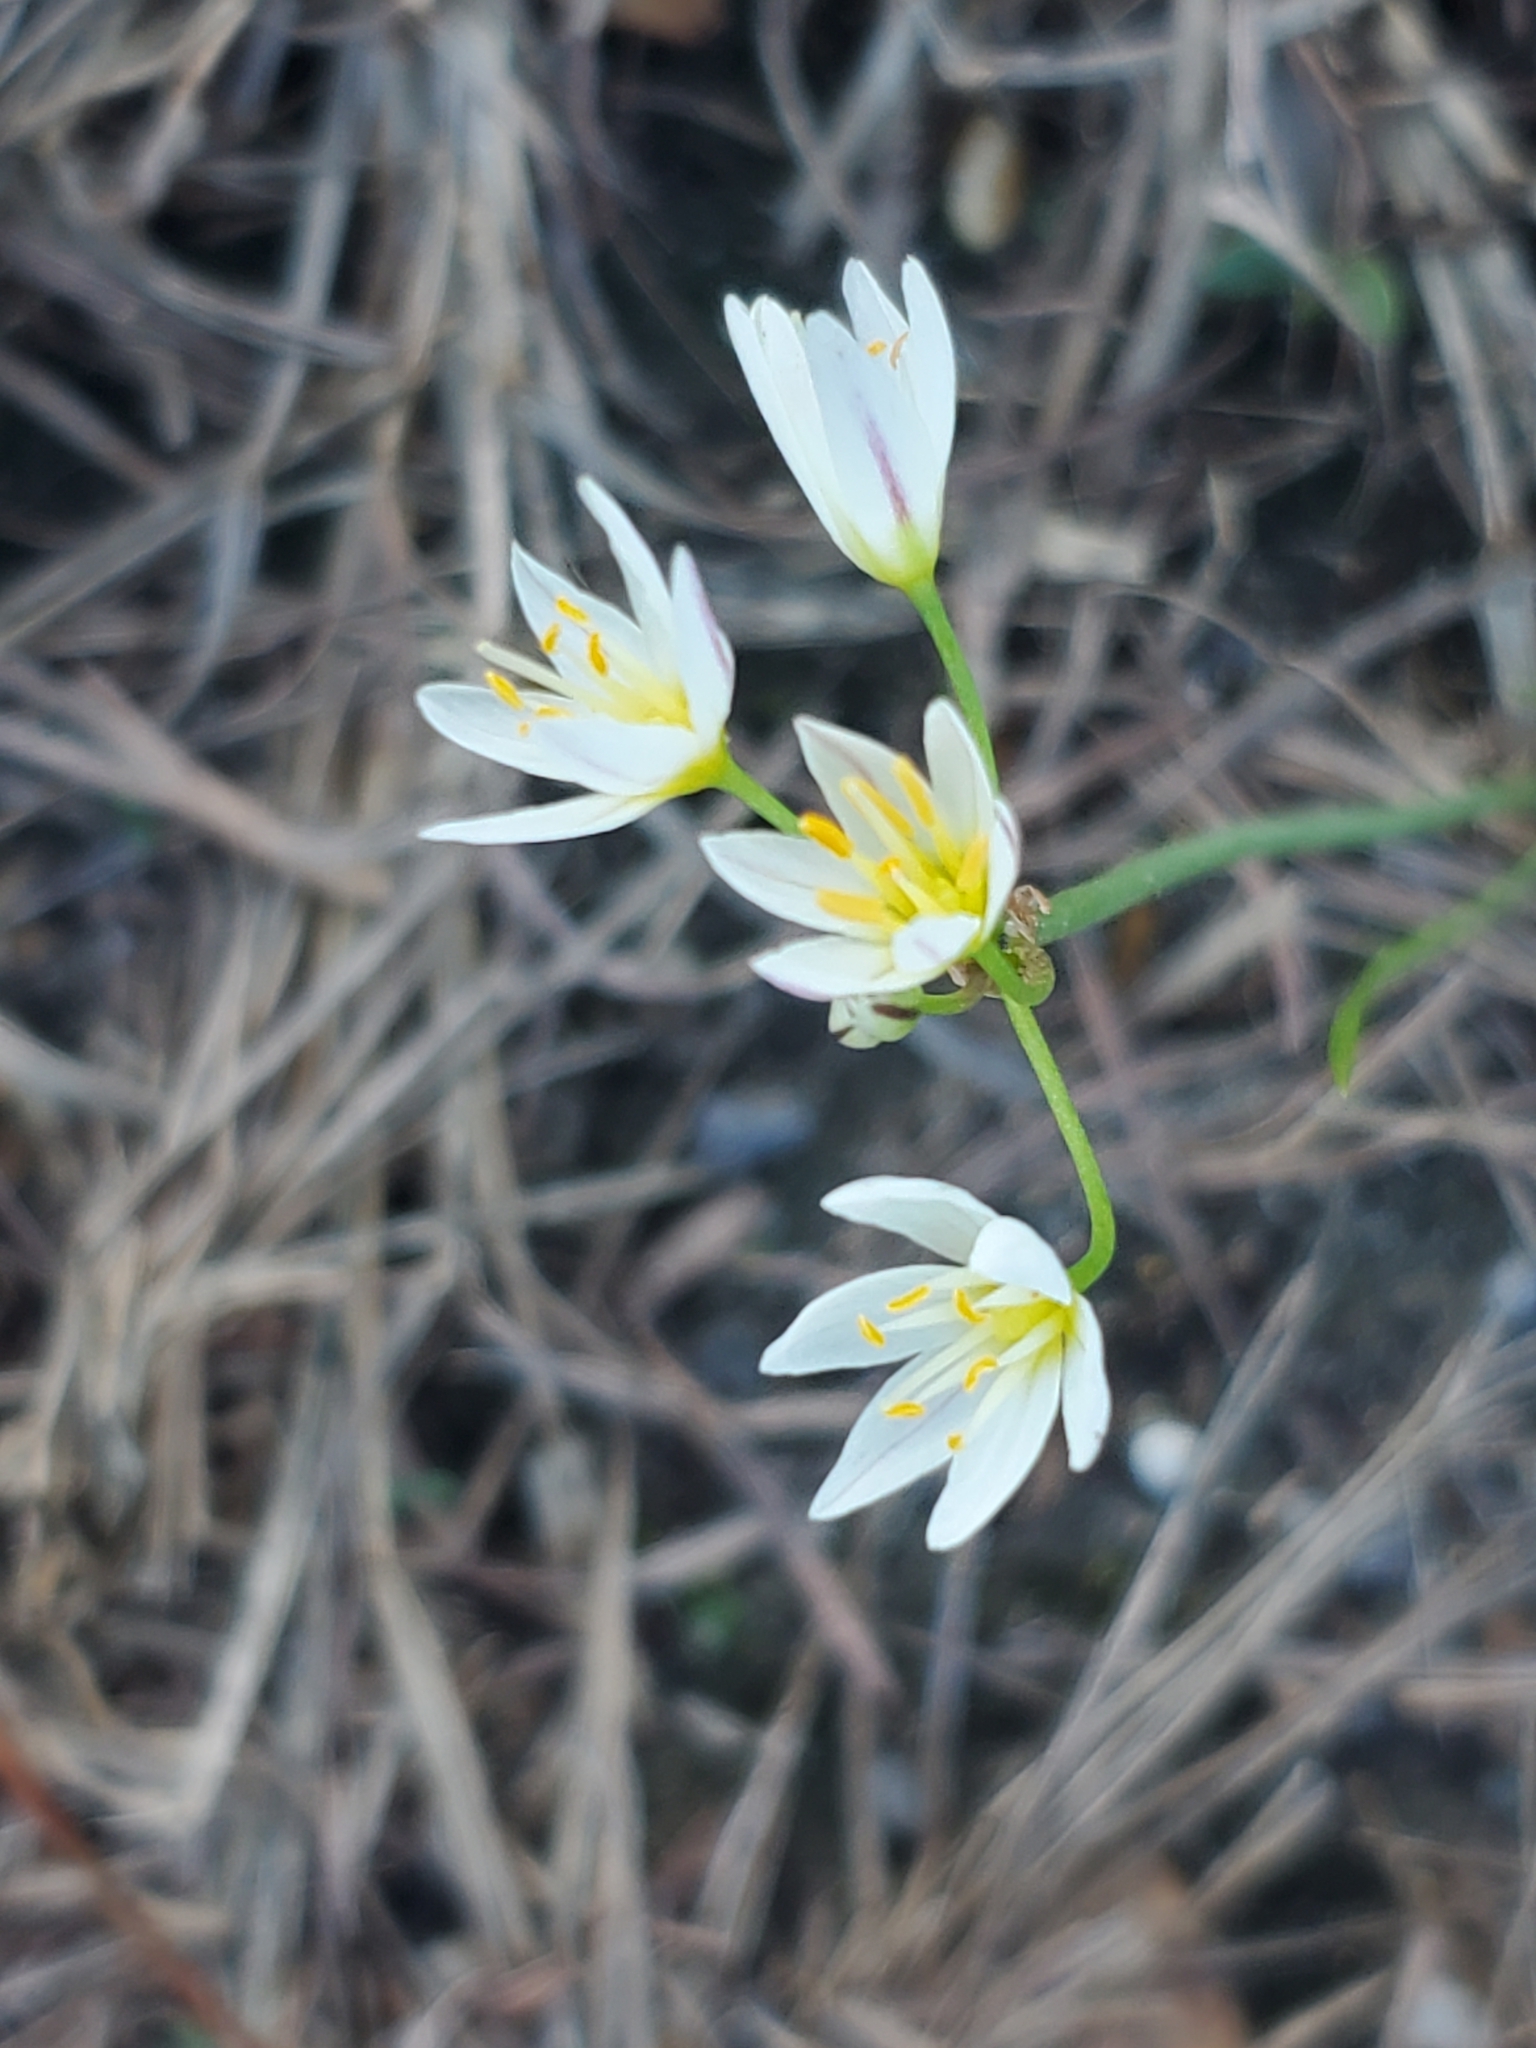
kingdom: Plantae
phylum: Tracheophyta
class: Liliopsida
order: Asparagales
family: Amaryllidaceae
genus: Nothoscordum
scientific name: Nothoscordum bivalve
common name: Crow-poison
